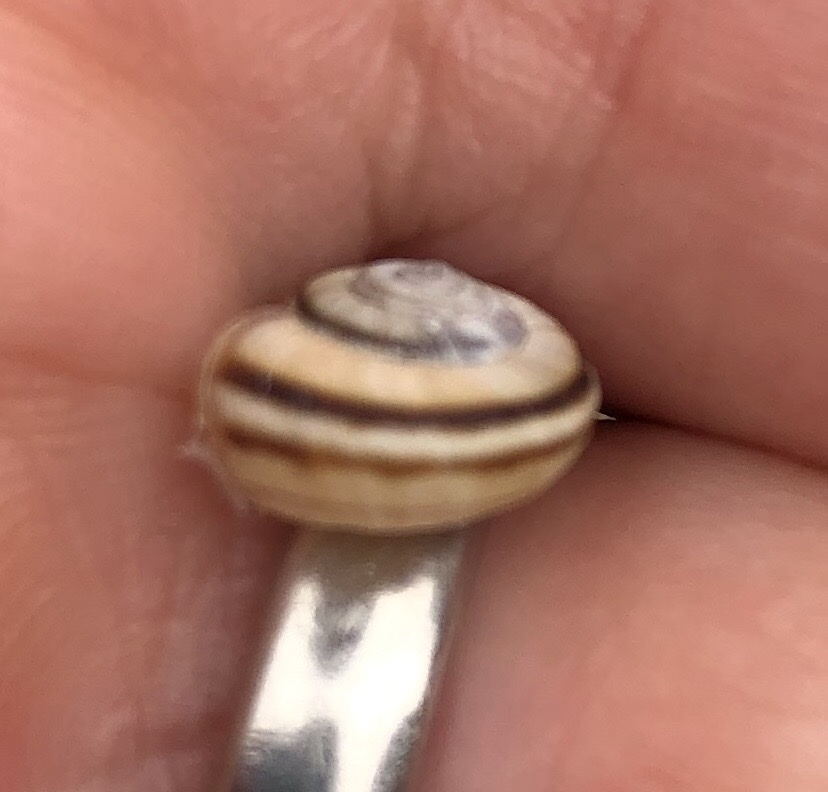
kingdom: Animalia
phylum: Mollusca
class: Gastropoda
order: Stylommatophora
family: Geomitridae
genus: Xerolenta
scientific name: Xerolenta obvia
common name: White heath snail
